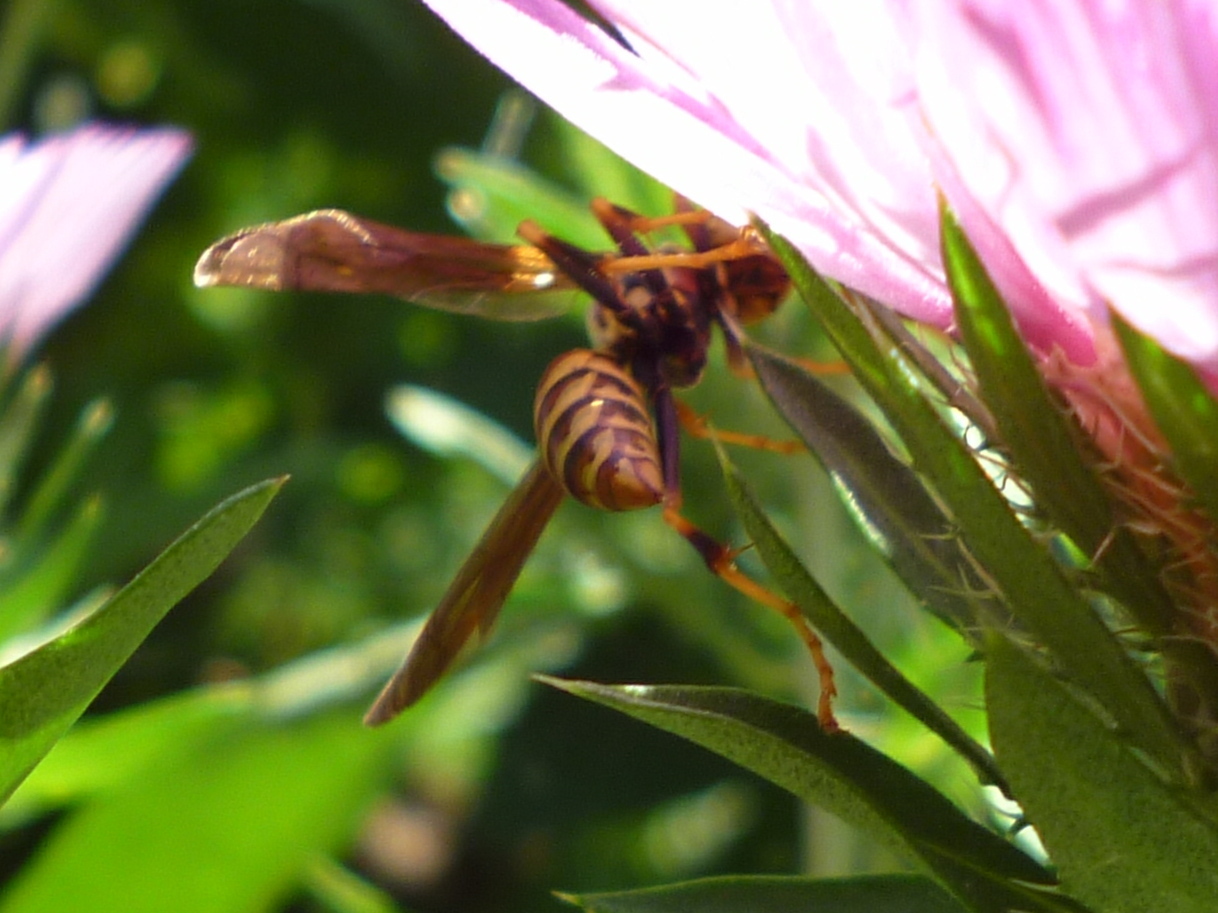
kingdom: Animalia
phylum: Arthropoda
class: Insecta
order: Hymenoptera
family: Eumenidae
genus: Polistes
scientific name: Polistes exclamans
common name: Paper wasp
